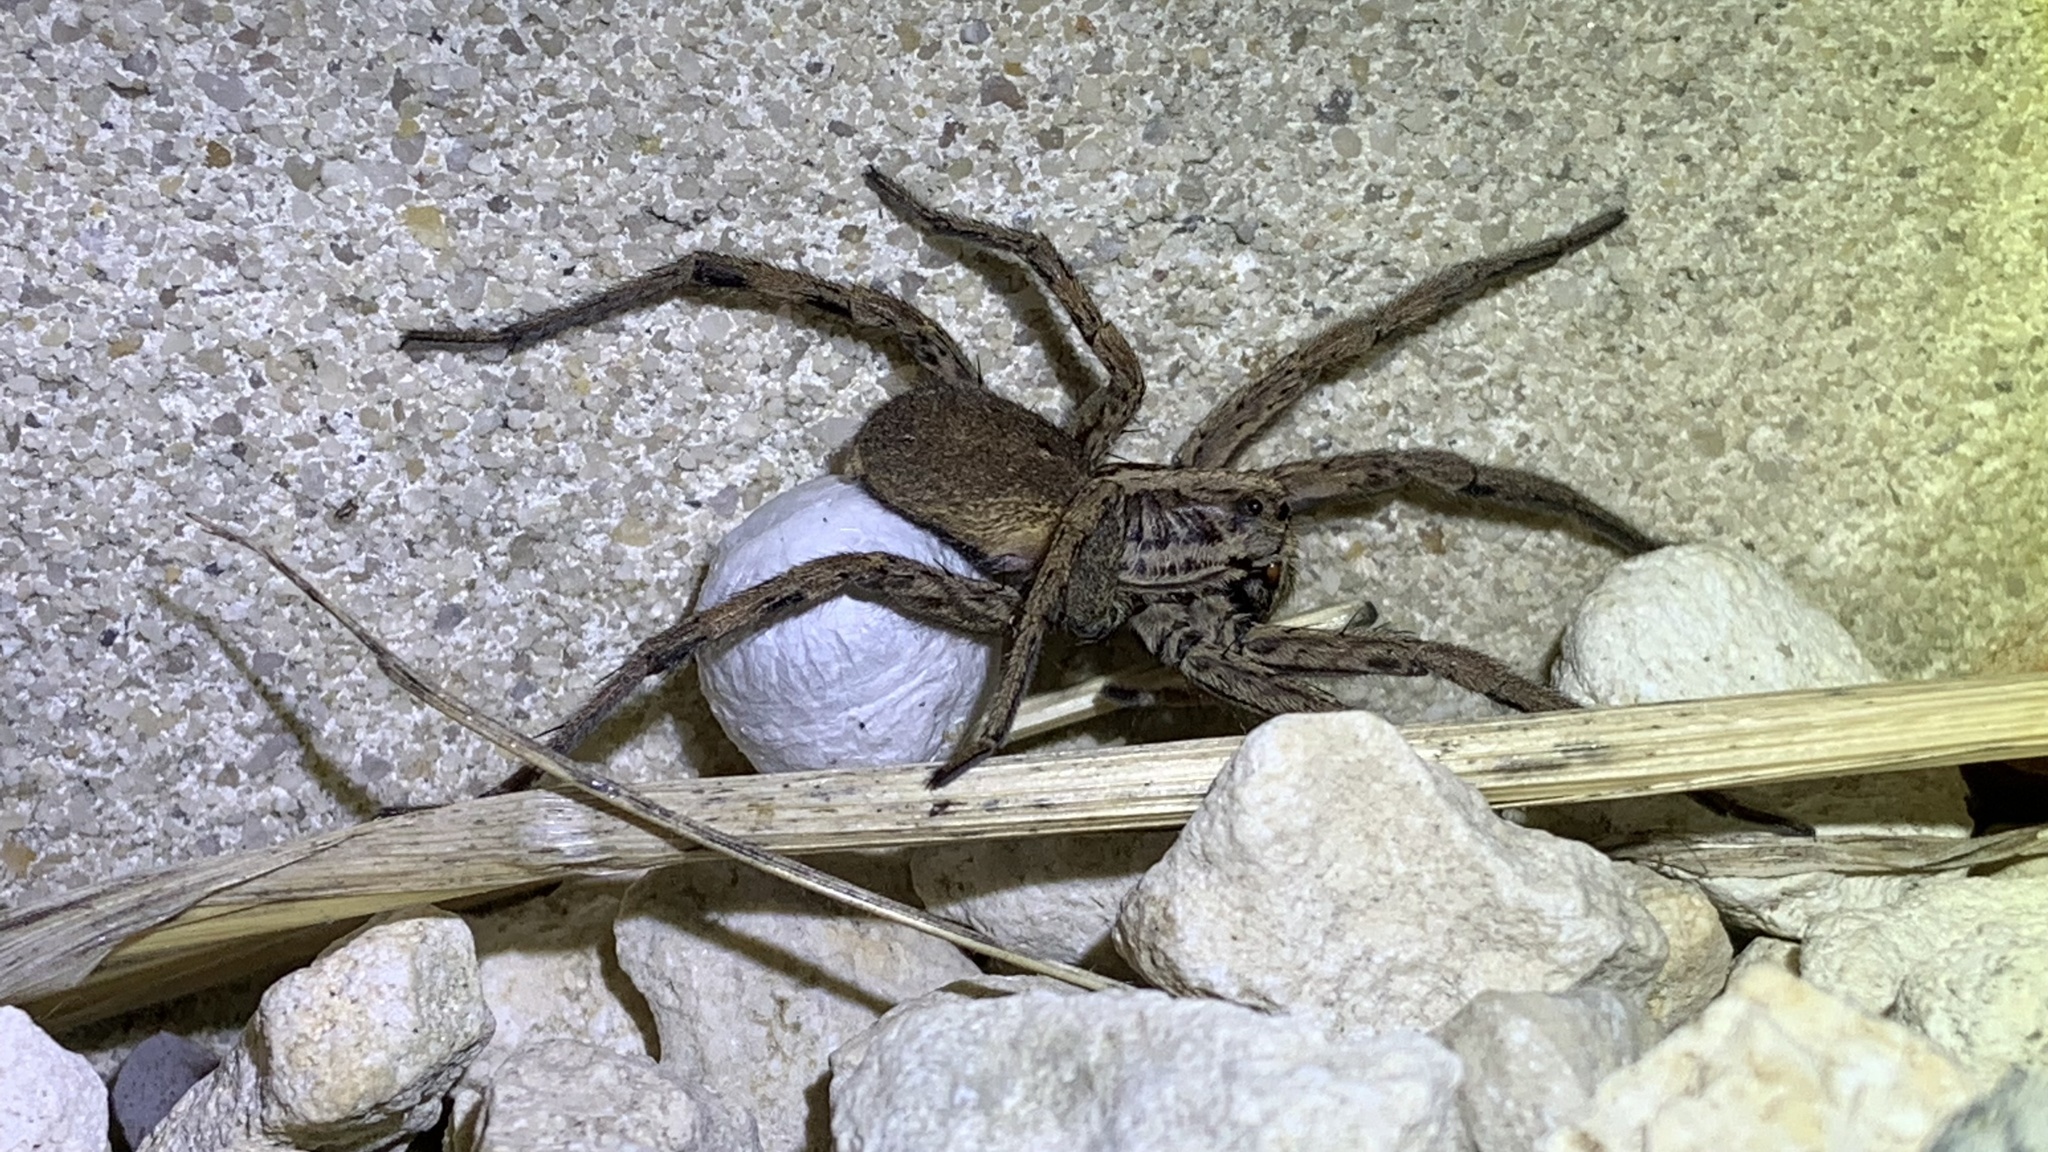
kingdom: Animalia
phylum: Arthropoda
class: Arachnida
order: Araneae
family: Lycosidae
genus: Hogna
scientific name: Hogna radiata
